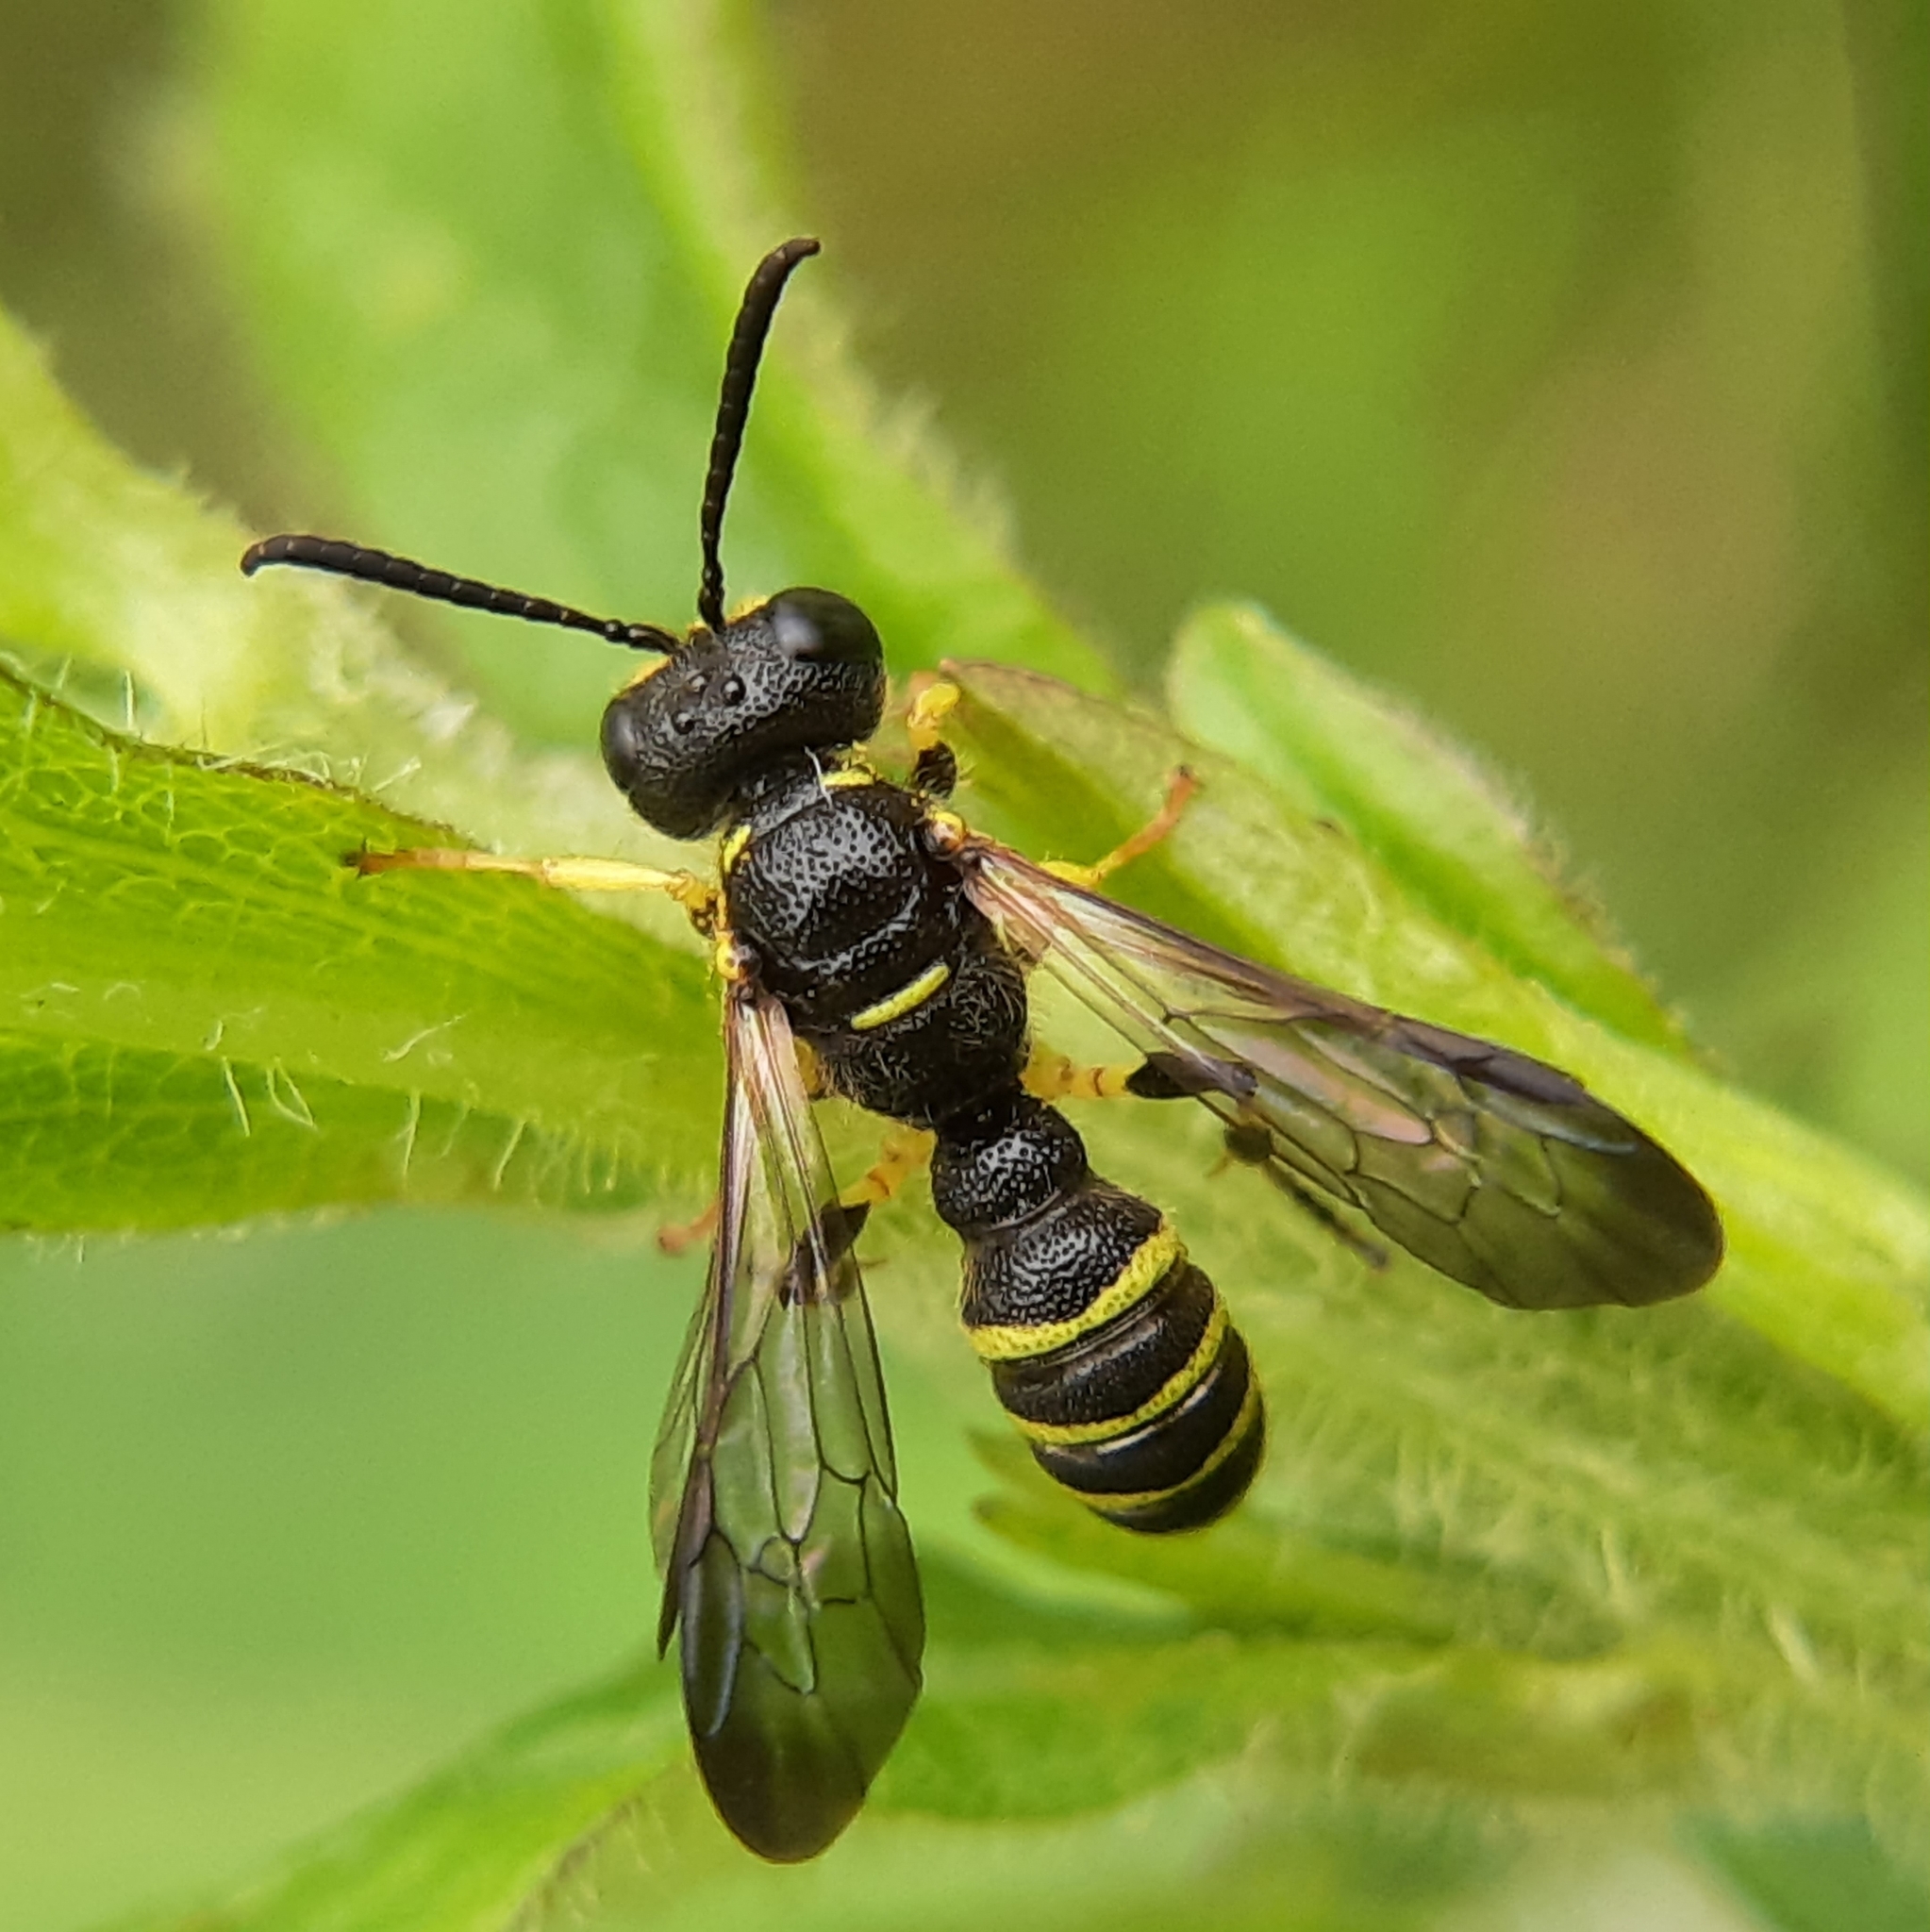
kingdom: Animalia
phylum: Arthropoda
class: Insecta
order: Hymenoptera
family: Crabronidae
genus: Cerceris
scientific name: Cerceris arelate
